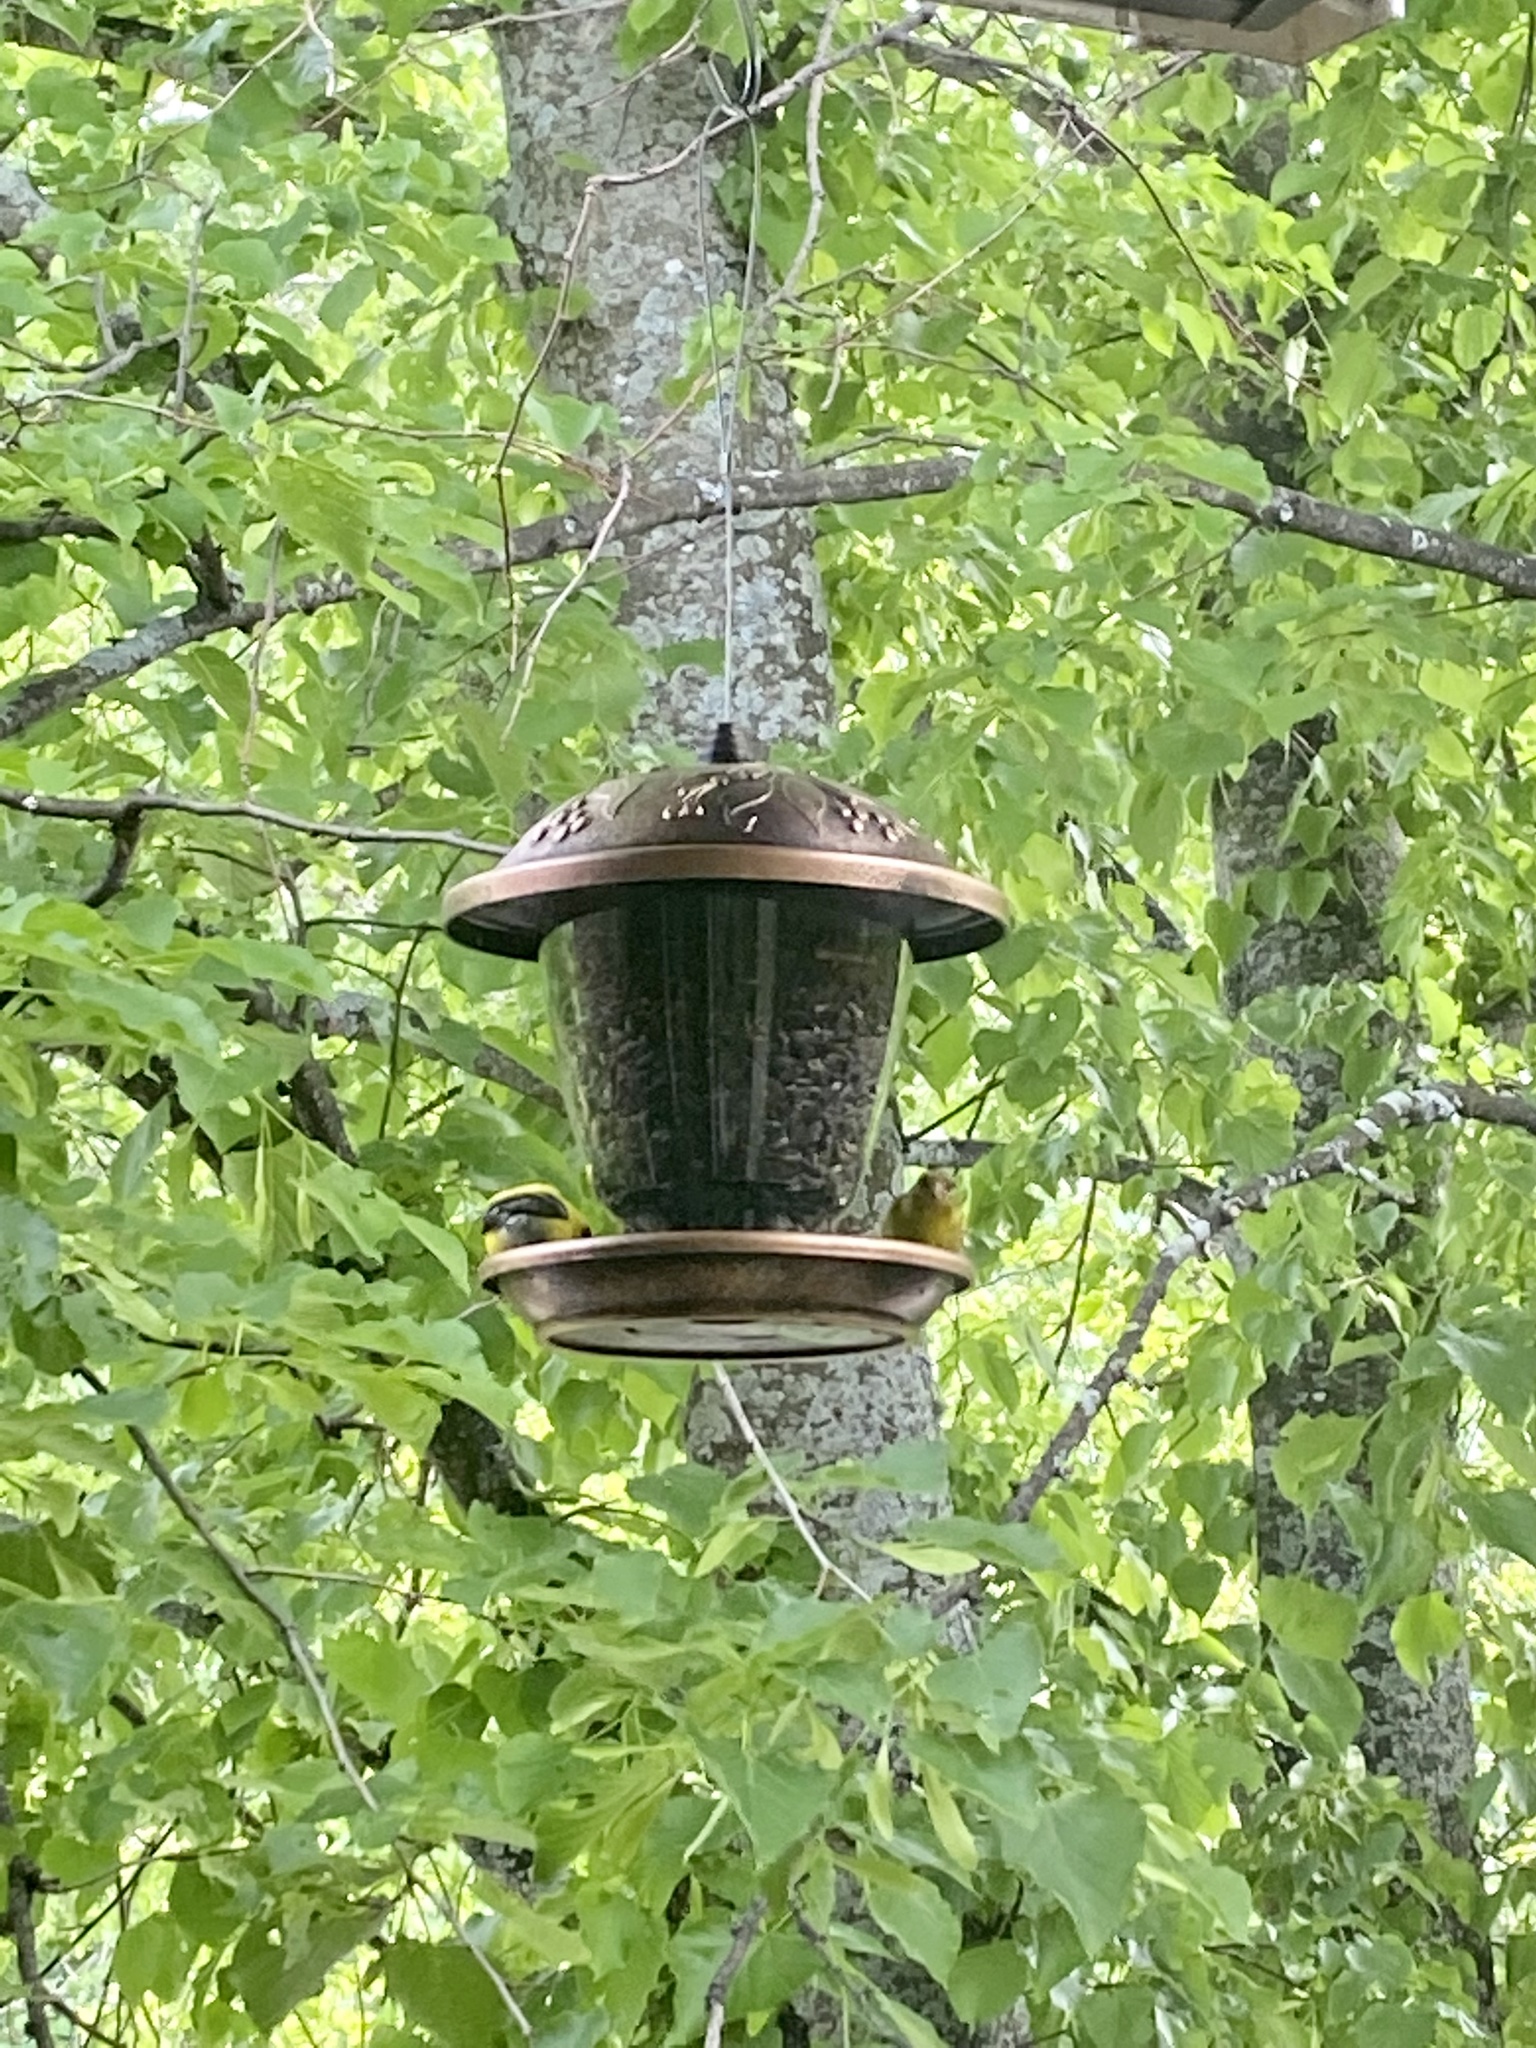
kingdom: Animalia
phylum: Chordata
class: Aves
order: Passeriformes
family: Fringillidae
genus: Spinus
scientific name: Spinus tristis
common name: American goldfinch
